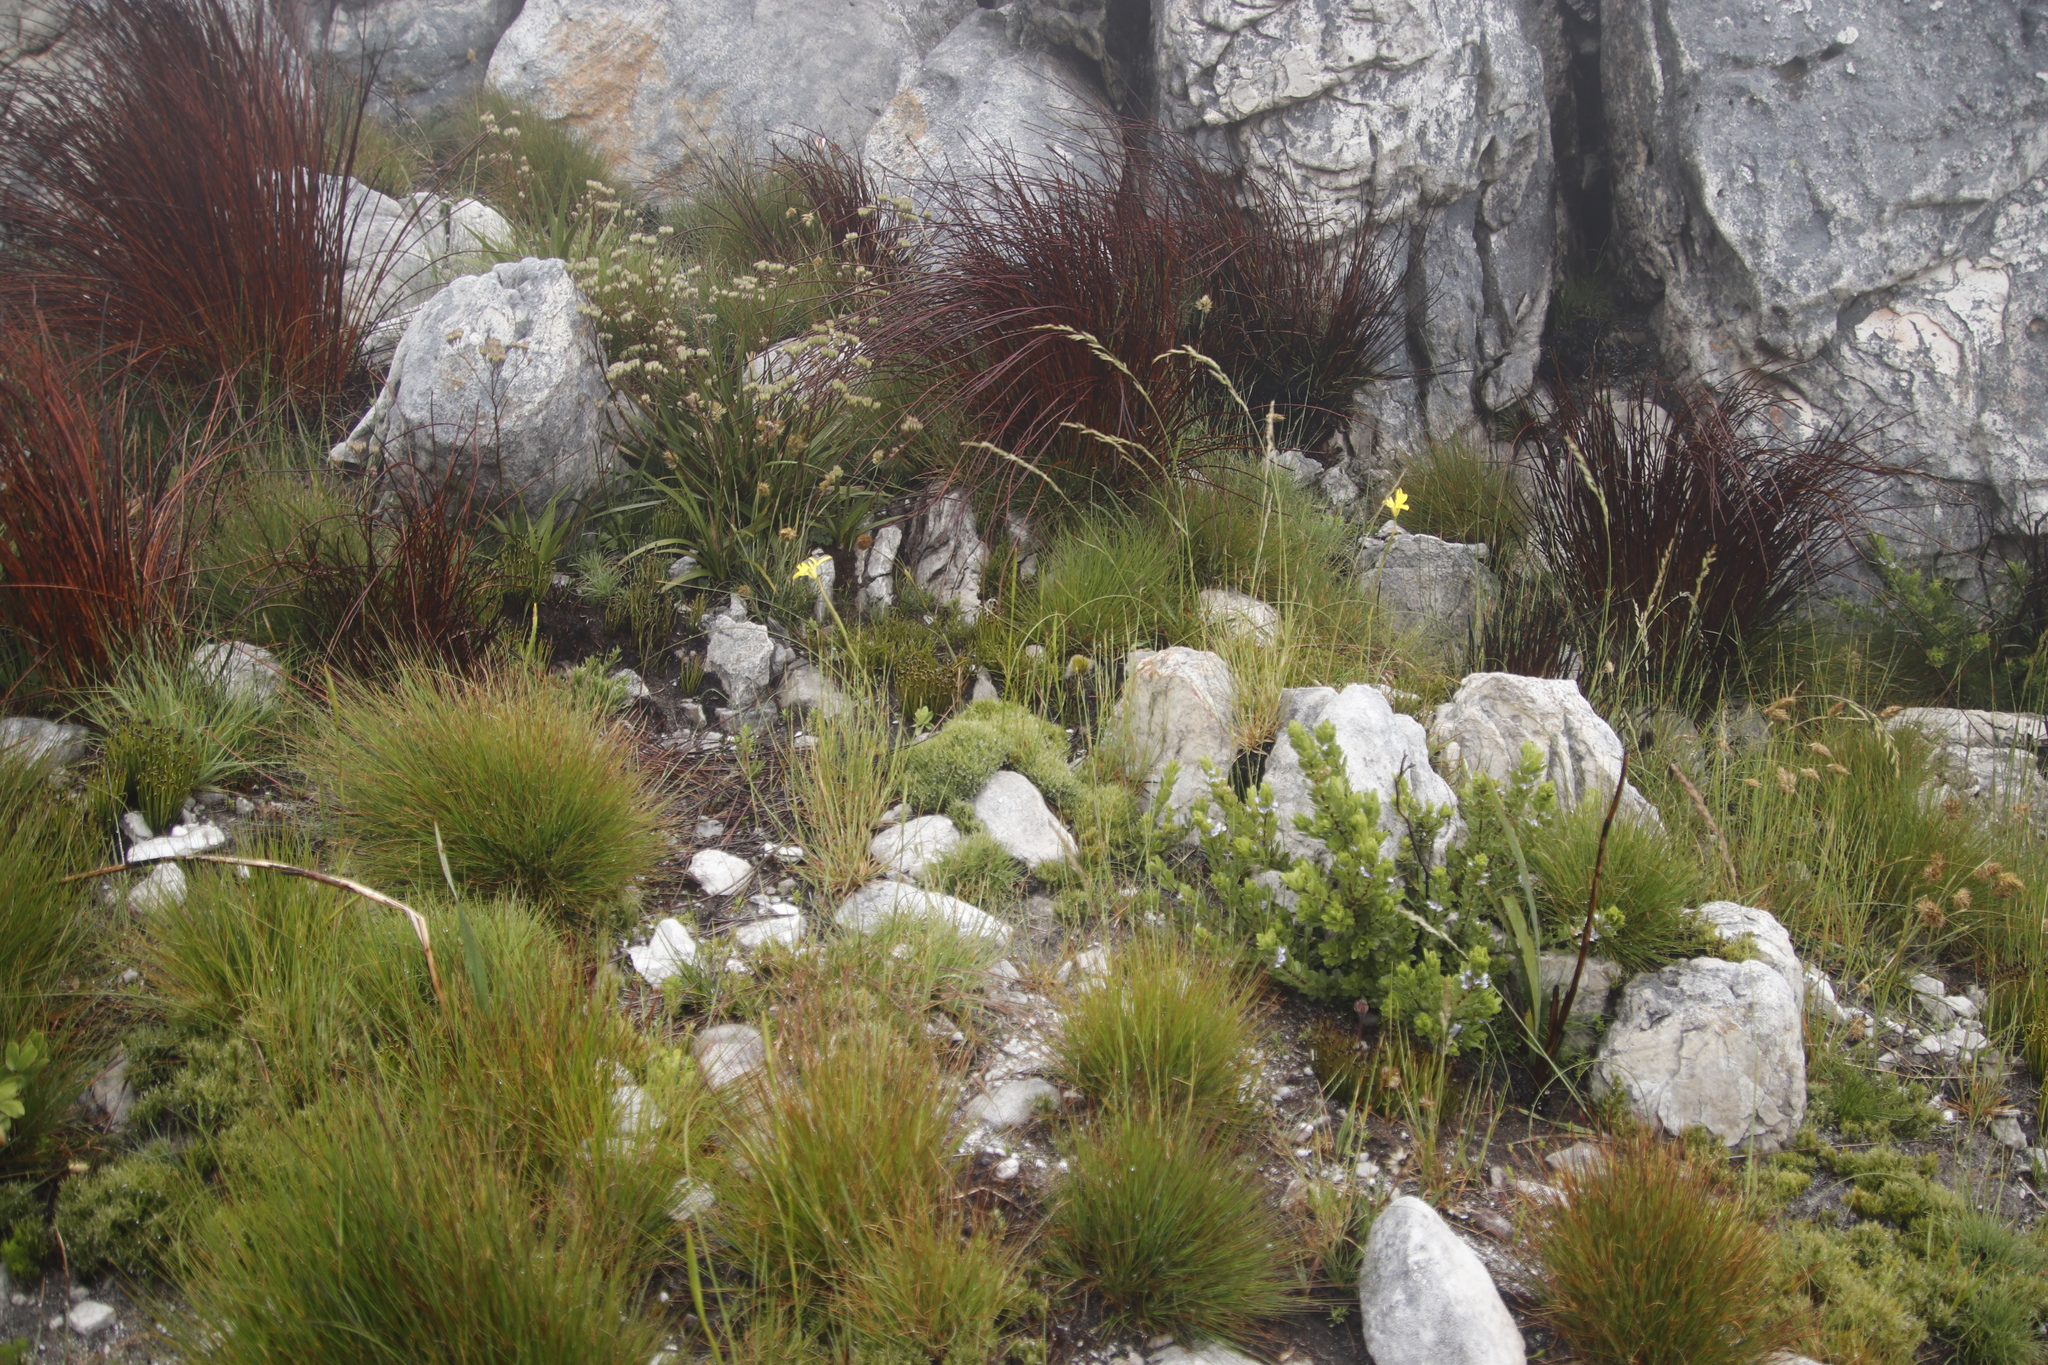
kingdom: Plantae
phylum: Tracheophyta
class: Liliopsida
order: Poales
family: Poaceae
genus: Geochloa
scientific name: Geochloa rufa
